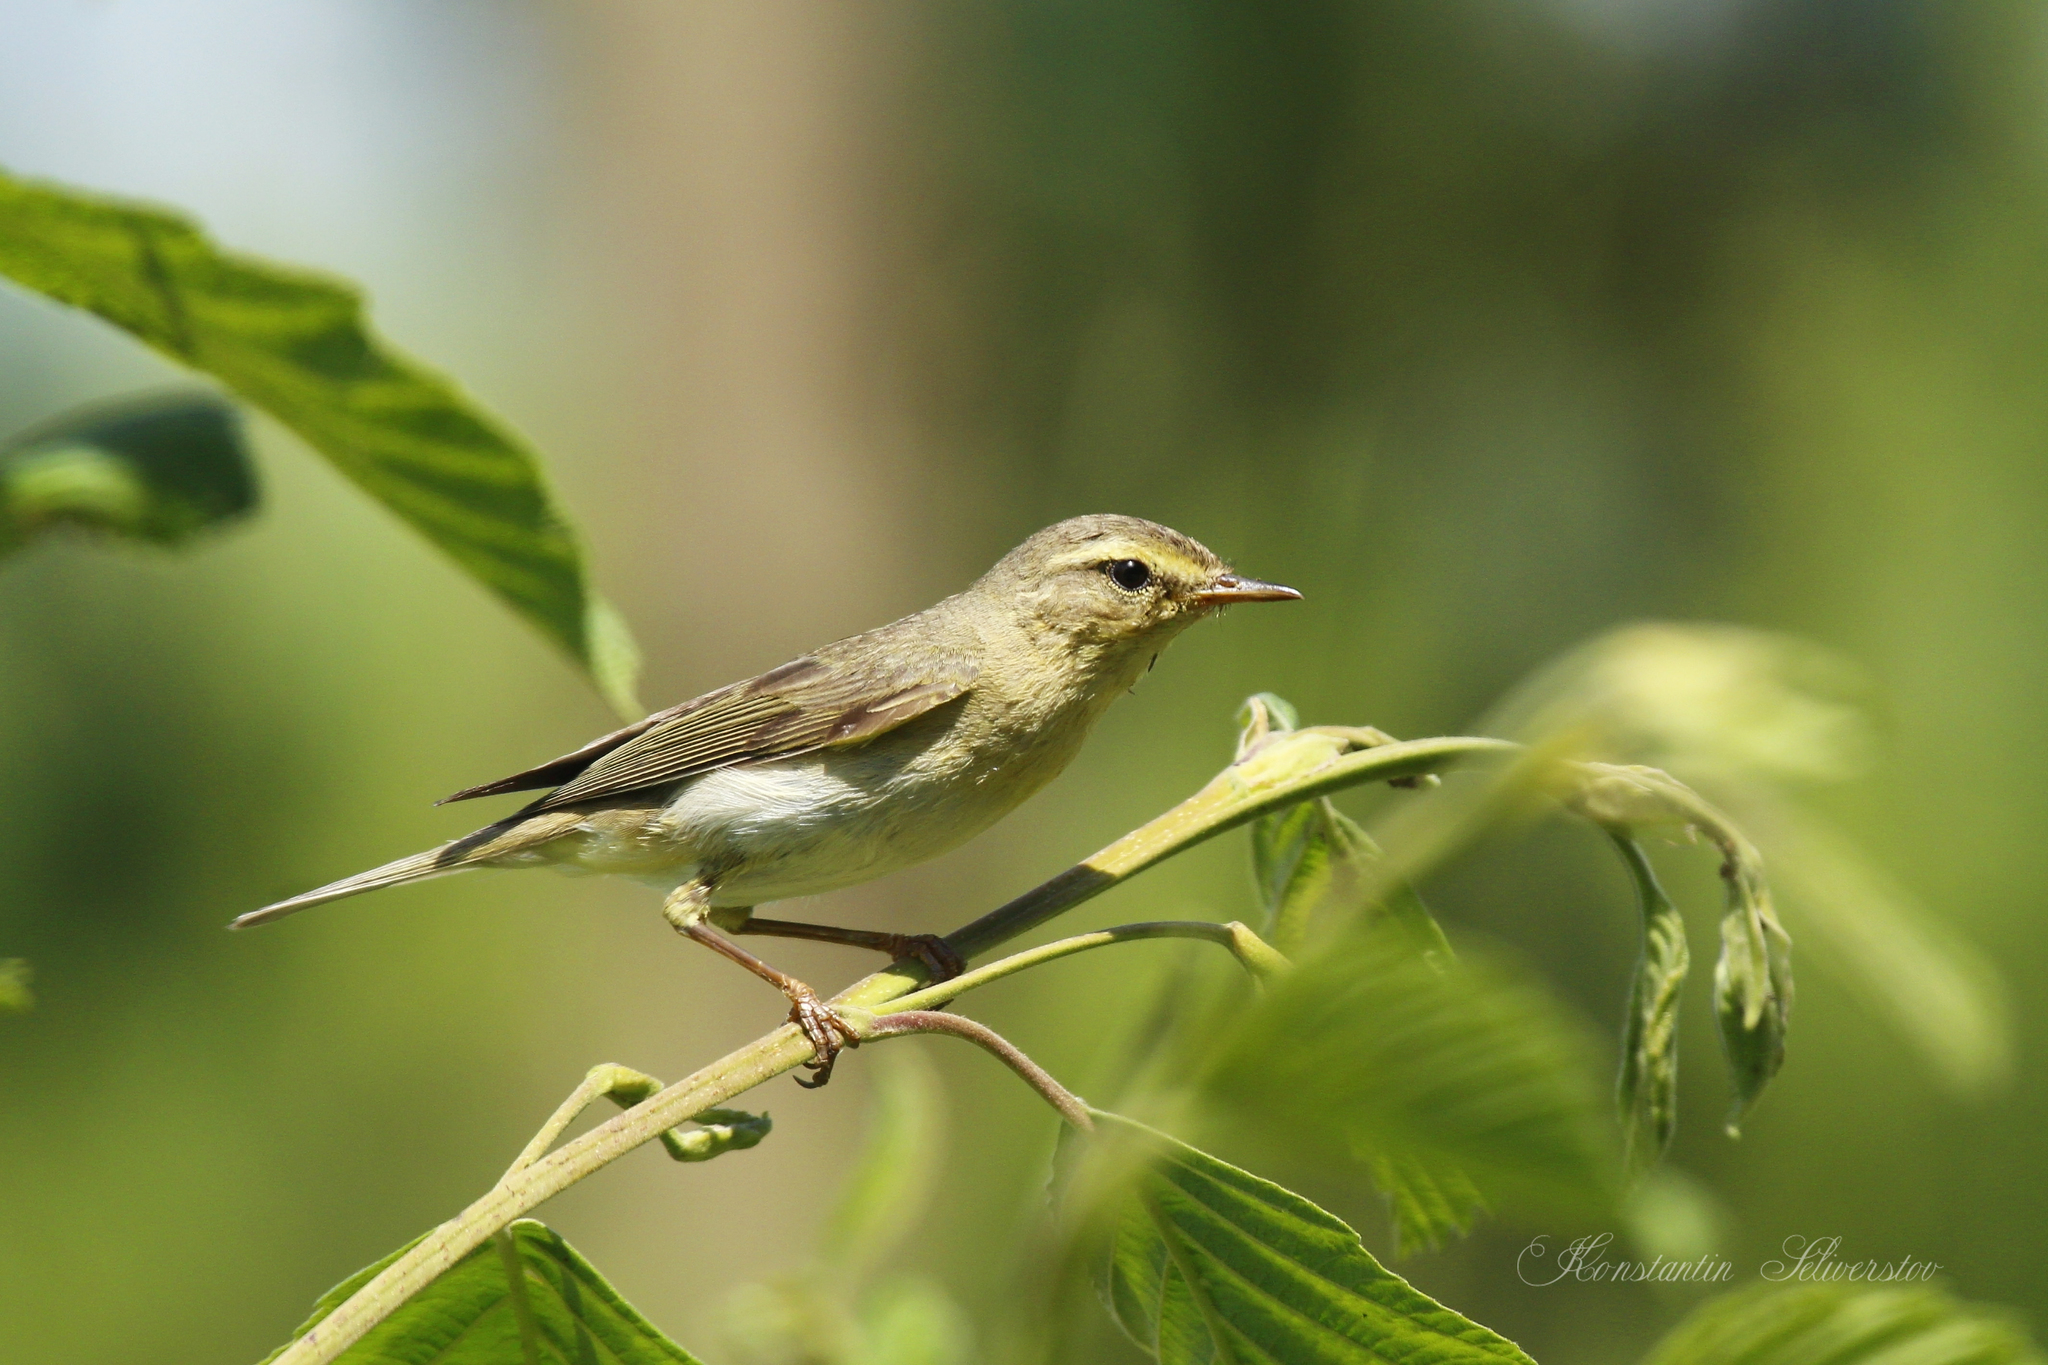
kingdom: Animalia
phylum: Chordata
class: Aves
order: Passeriformes
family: Phylloscopidae
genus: Phylloscopus
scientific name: Phylloscopus trochilus
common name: Willow warbler
